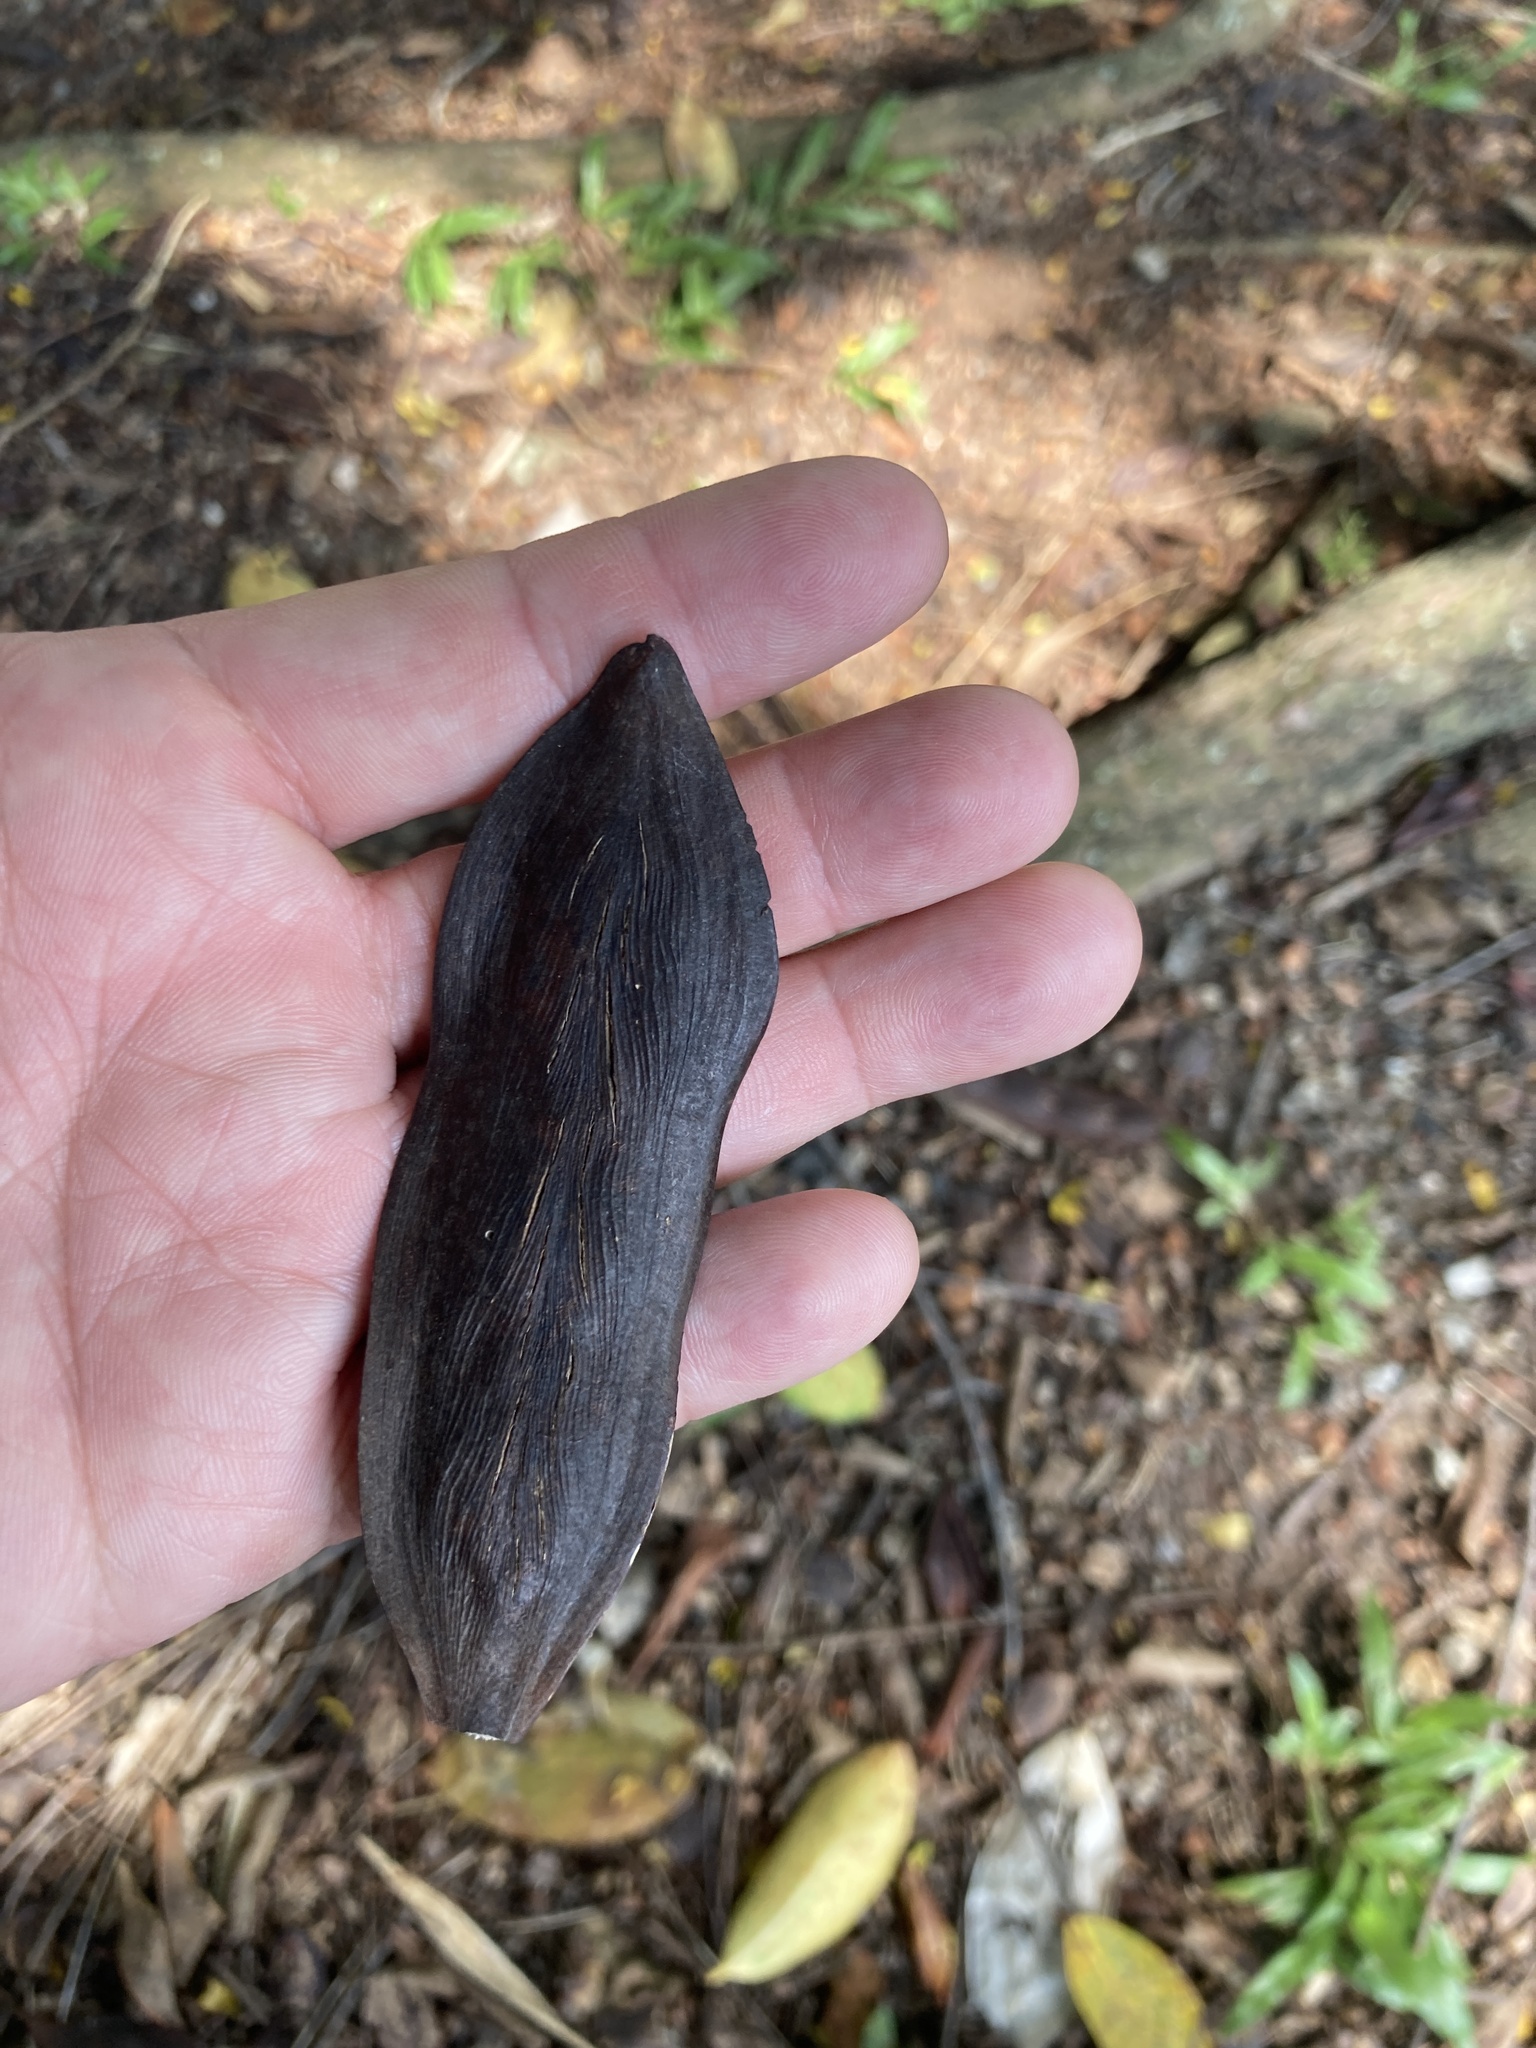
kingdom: Plantae
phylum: Tracheophyta
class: Magnoliopsida
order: Fabales
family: Fabaceae
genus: Peltophorum
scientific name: Peltophorum pterocarpum
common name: Yellow flame
